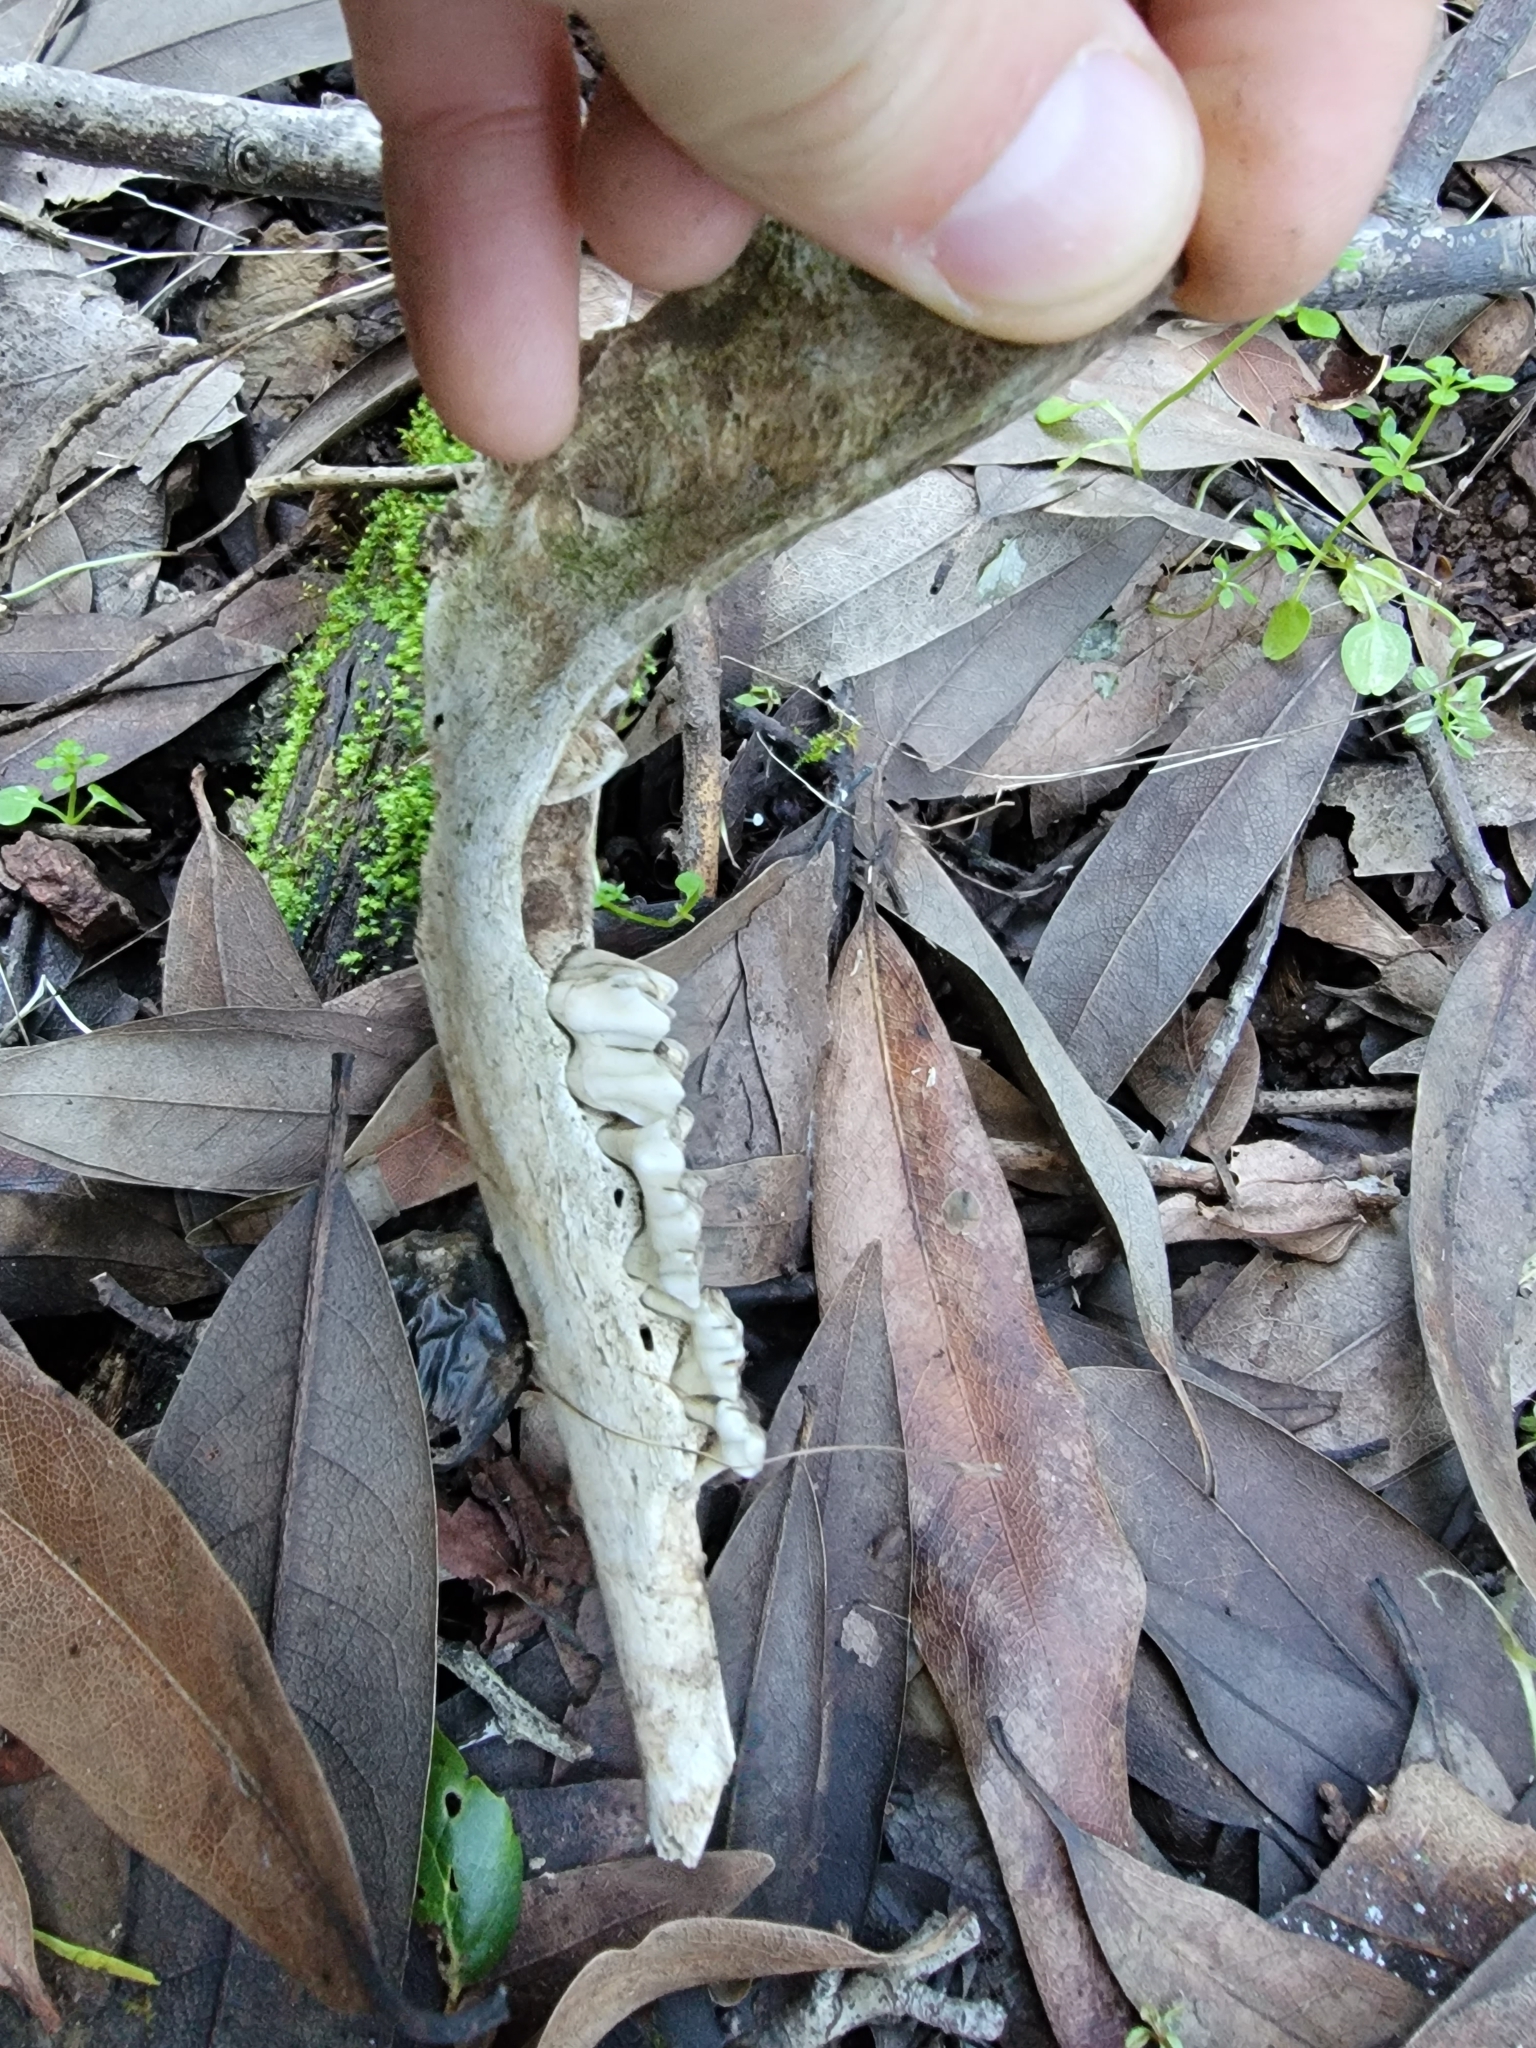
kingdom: Animalia
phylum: Chordata
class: Mammalia
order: Artiodactyla
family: Cervidae
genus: Odocoileus
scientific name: Odocoileus hemionus
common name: Mule deer
